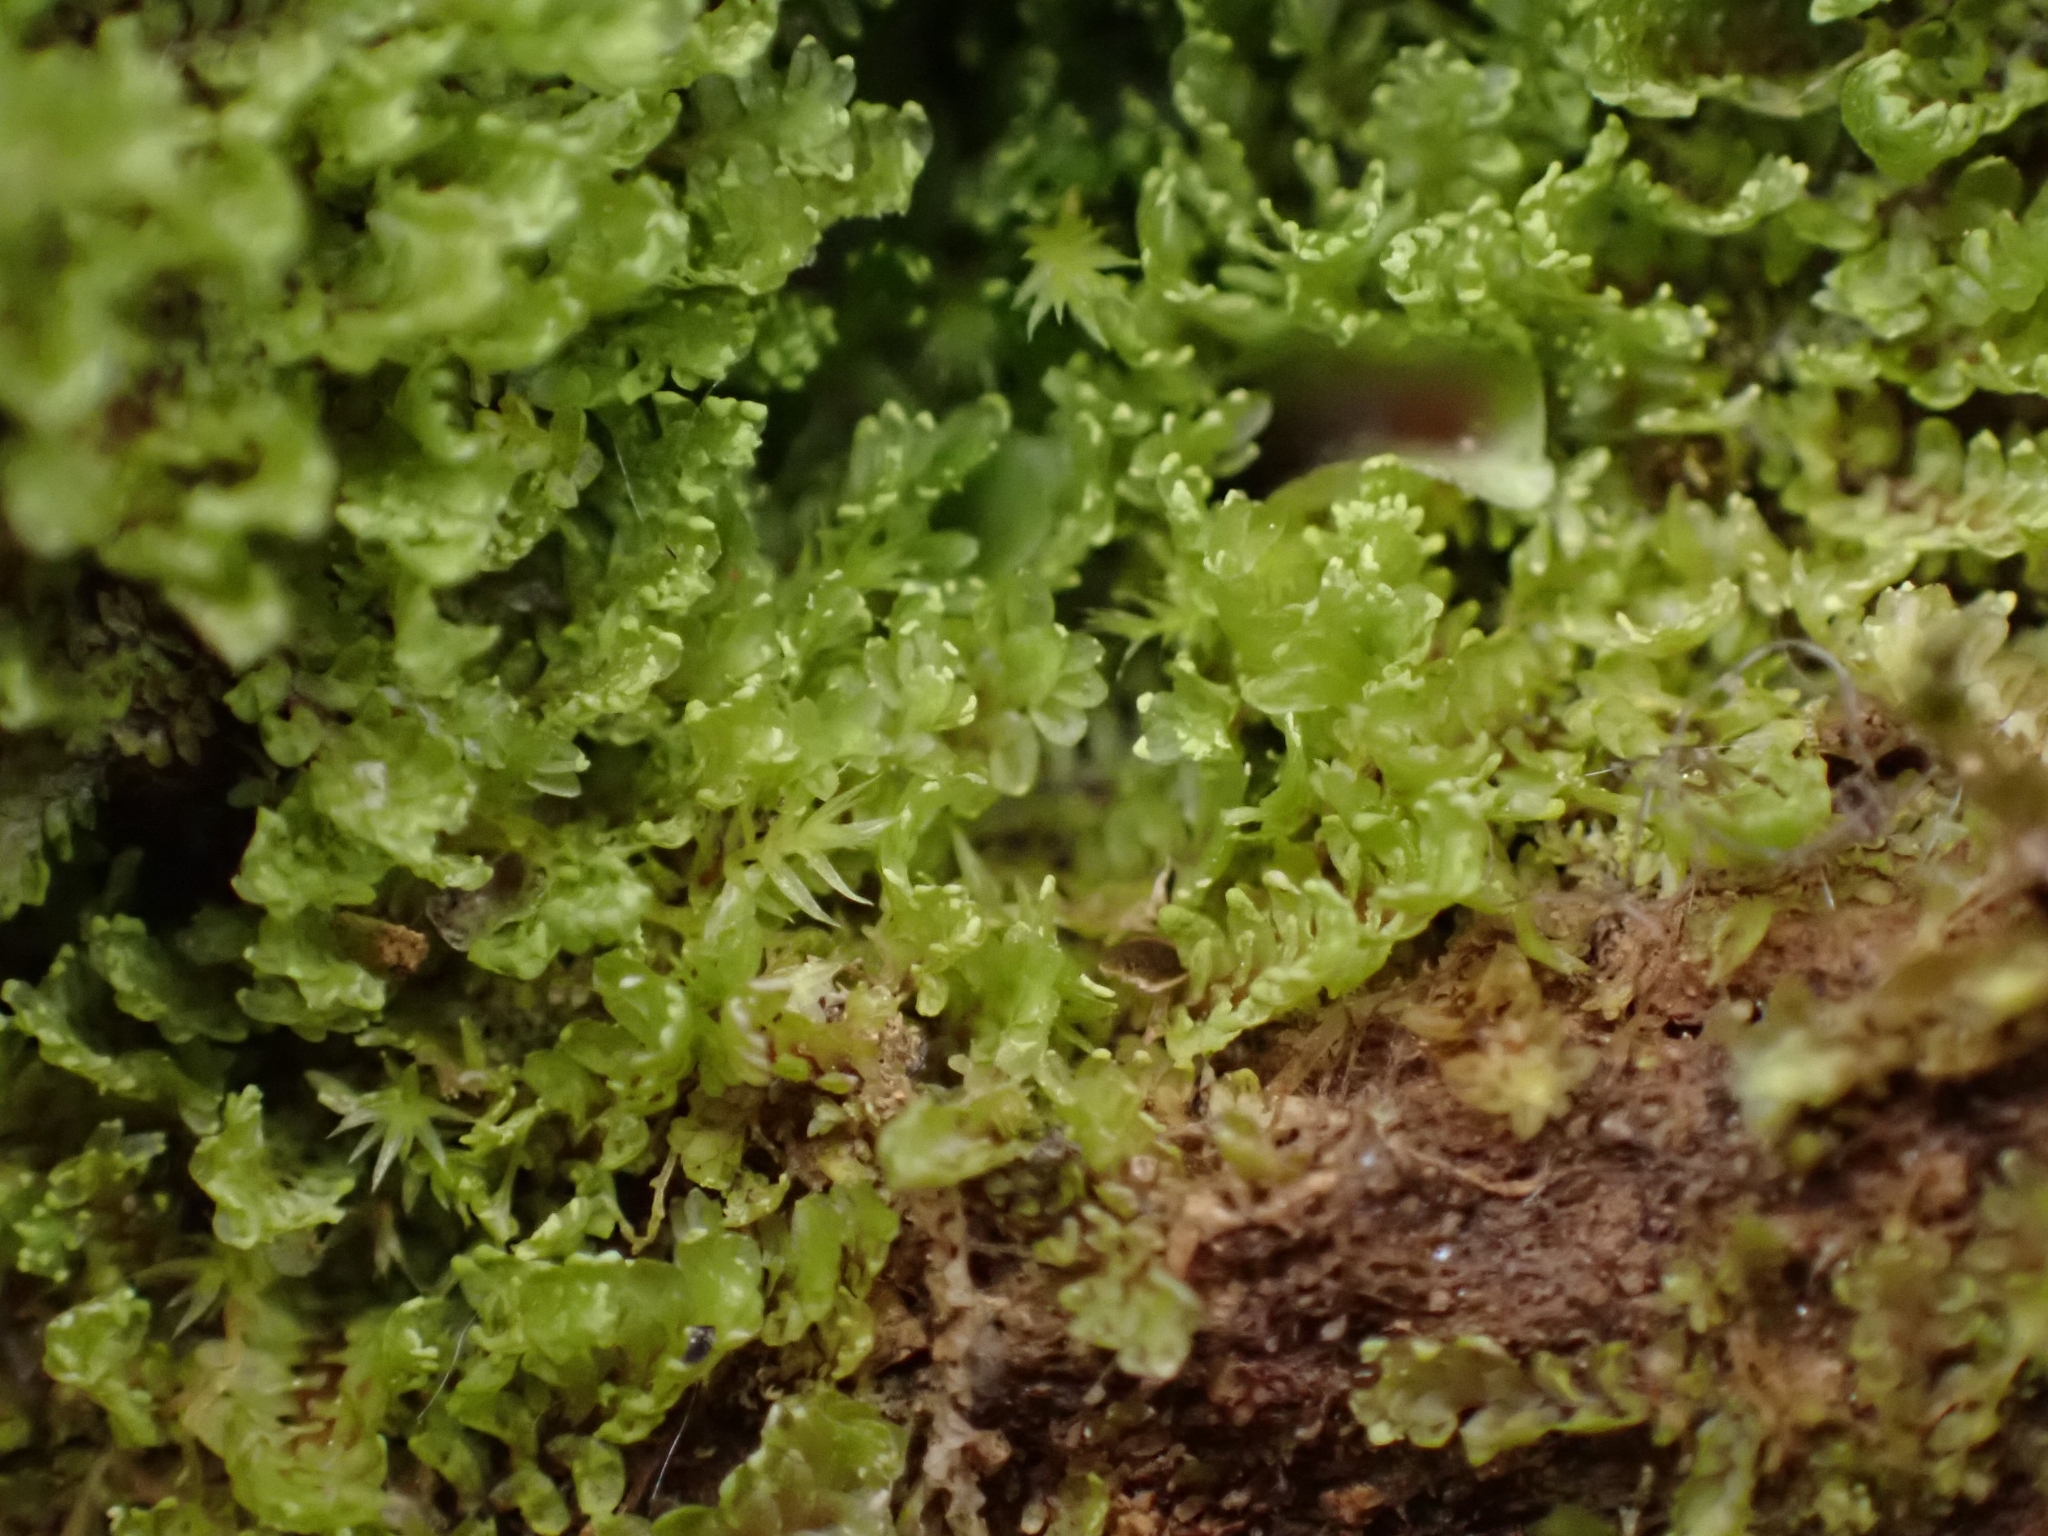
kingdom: Plantae
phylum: Marchantiophyta
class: Jungermanniopsida
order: Jungermanniales
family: Scapaniaceae
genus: Diplophyllum
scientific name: Diplophyllum albicans
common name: White earwort
